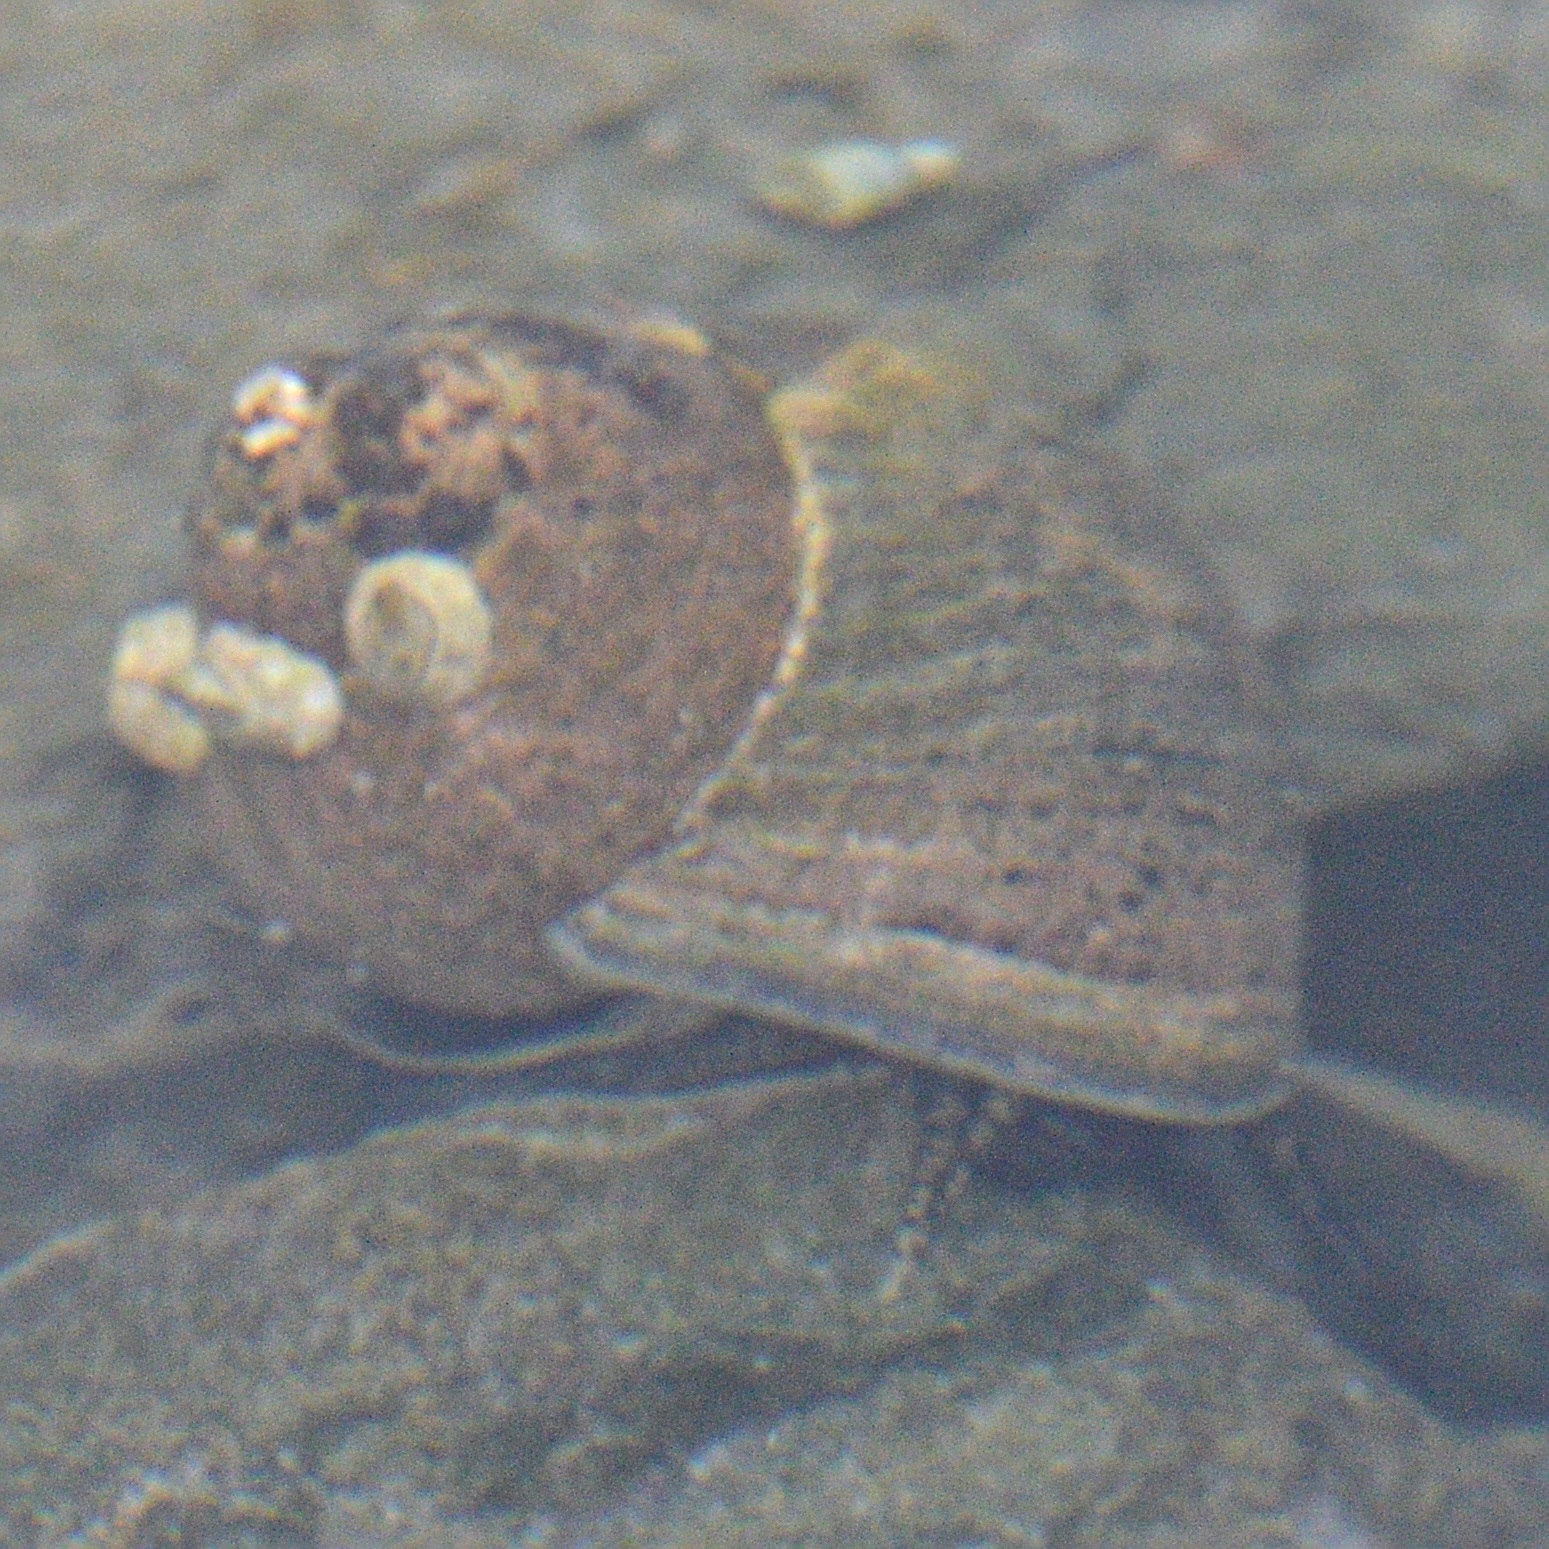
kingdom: Animalia
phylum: Mollusca
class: Gastropoda
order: Littorinimorpha
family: Littorinidae
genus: Littorina
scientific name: Littorina littorea
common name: Common periwinkle
